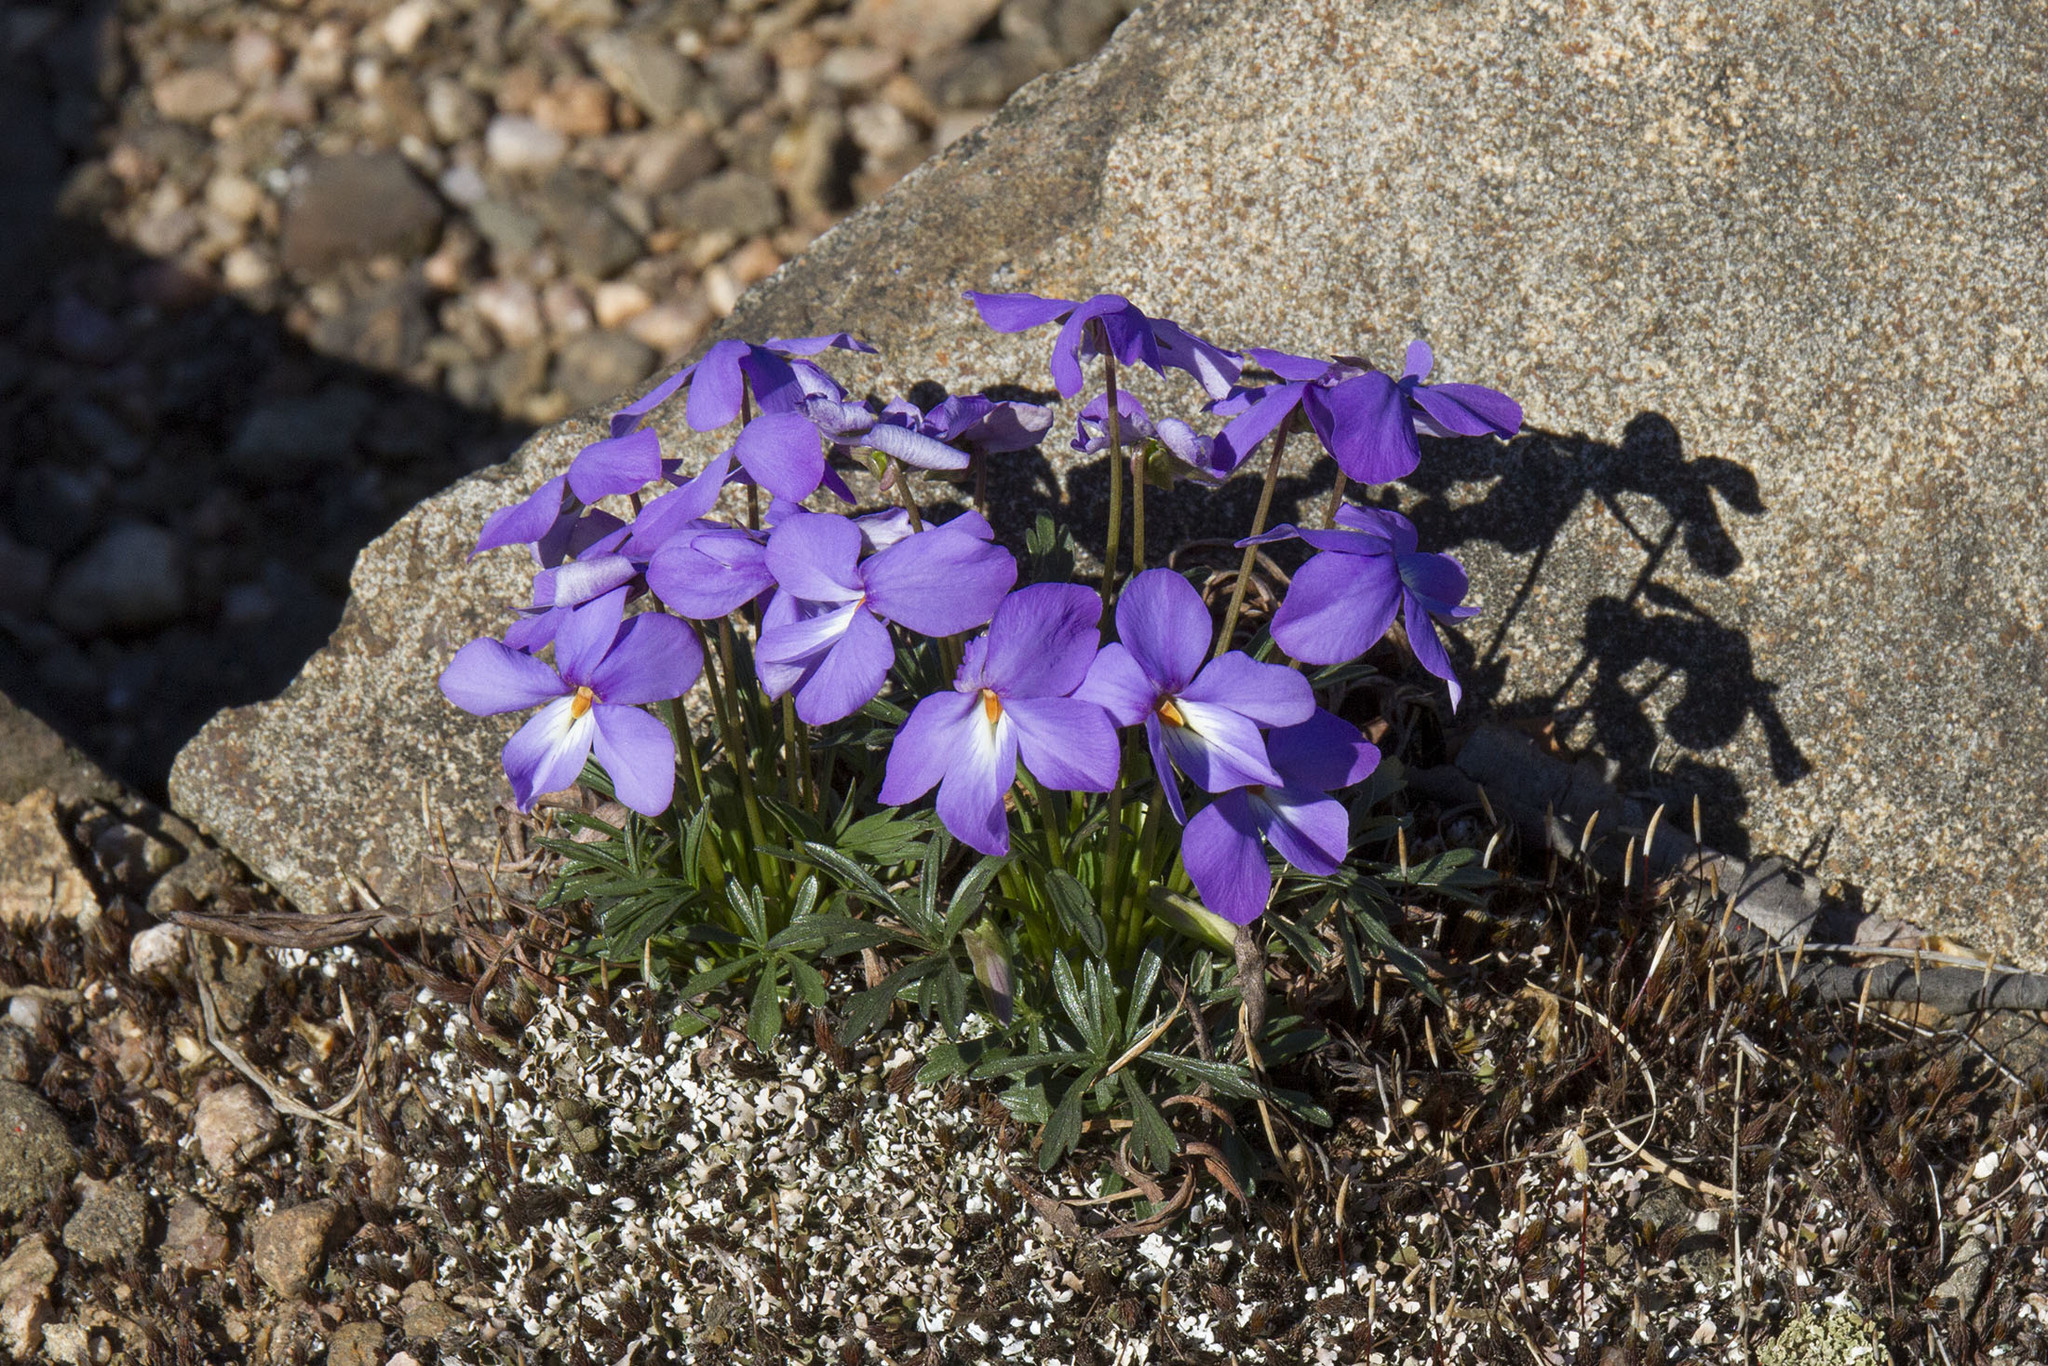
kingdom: Plantae
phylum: Tracheophyta
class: Magnoliopsida
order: Malpighiales
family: Violaceae
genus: Viola
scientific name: Viola pedata
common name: Pansy violet
